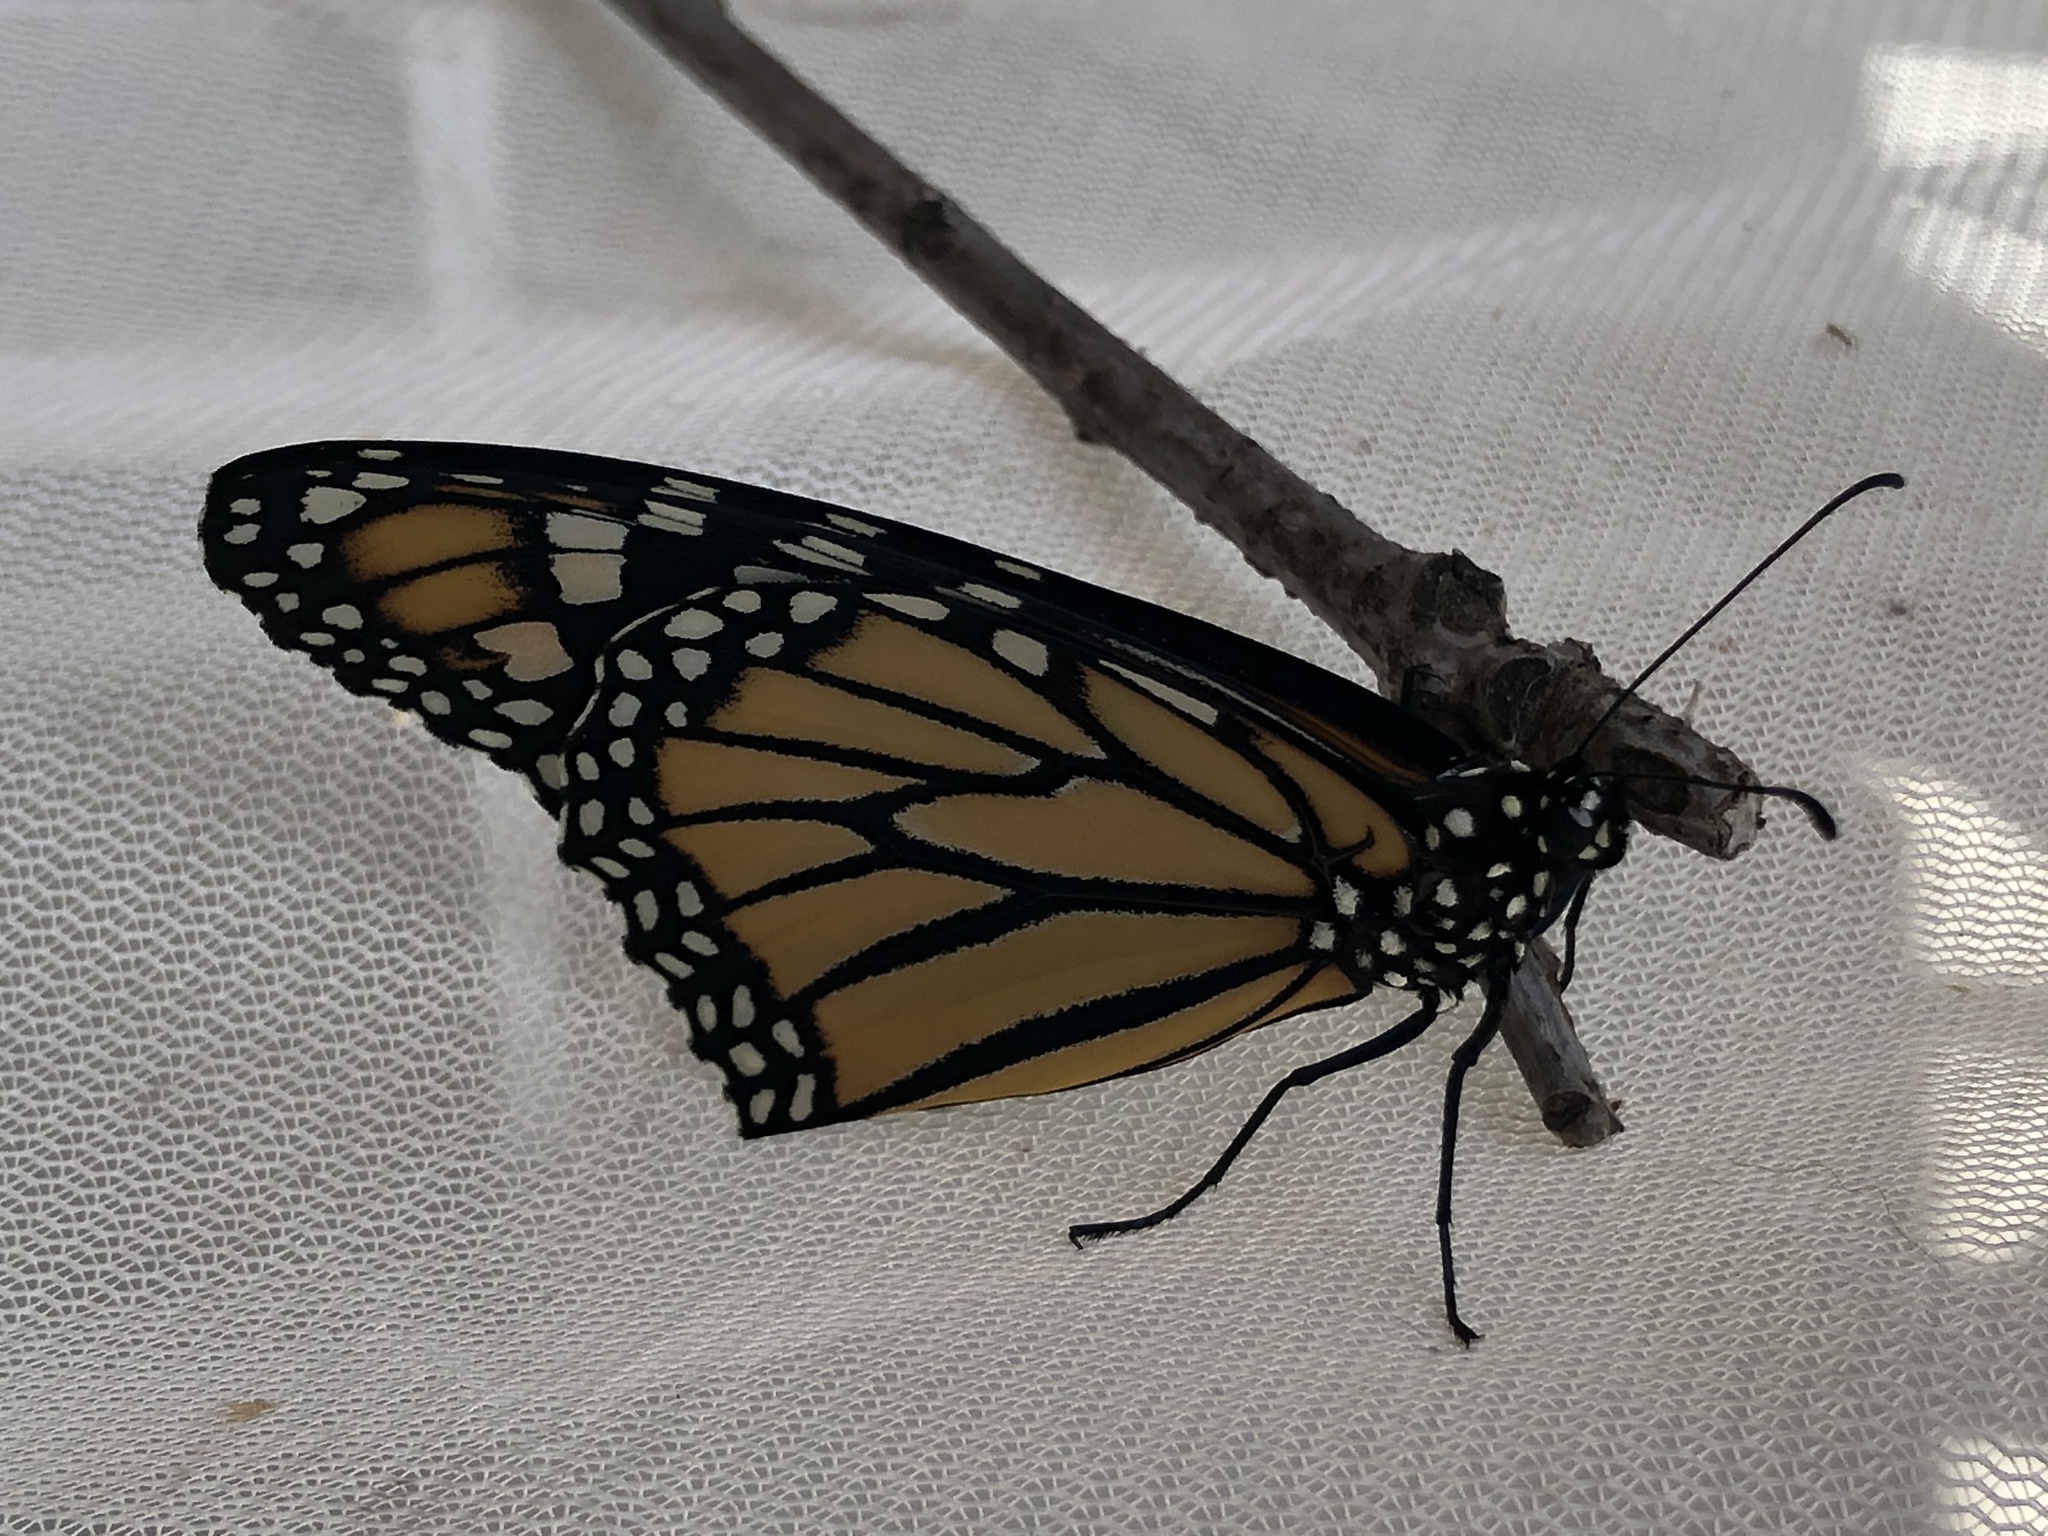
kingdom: Animalia
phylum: Arthropoda
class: Insecta
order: Lepidoptera
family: Nymphalidae
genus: Danaus
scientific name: Danaus plexippus
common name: Monarch
